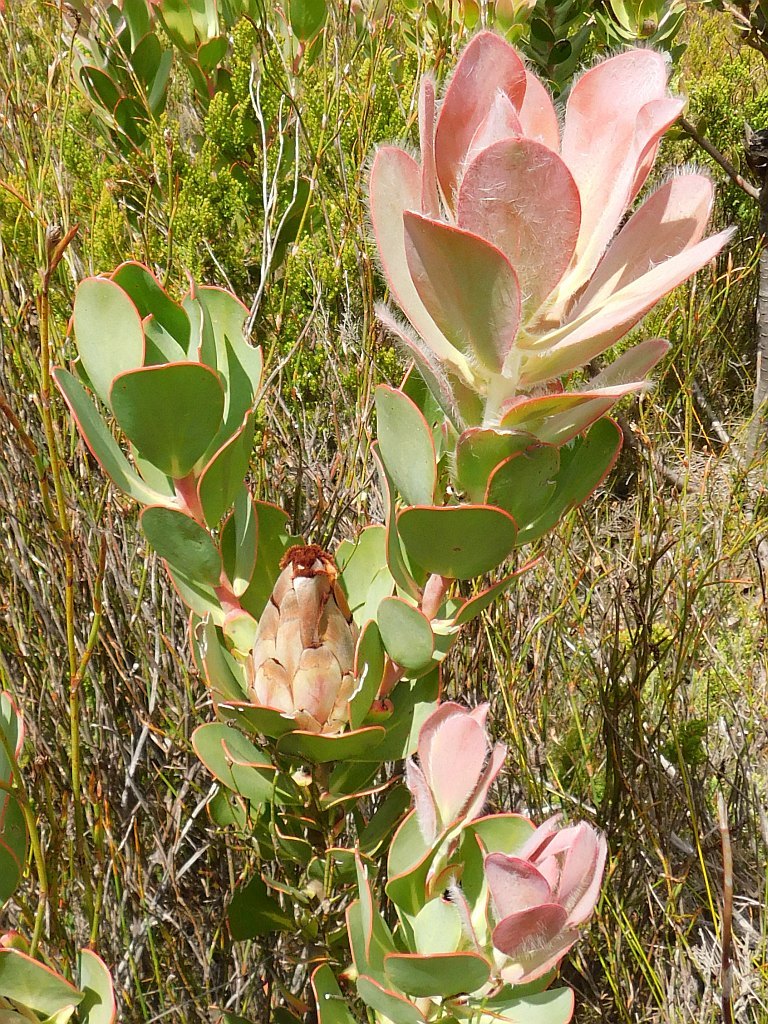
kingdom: Plantae
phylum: Tracheophyta
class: Magnoliopsida
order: Proteales
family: Proteaceae
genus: Protea
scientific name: Protea stokoei
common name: Pink sugarbush
